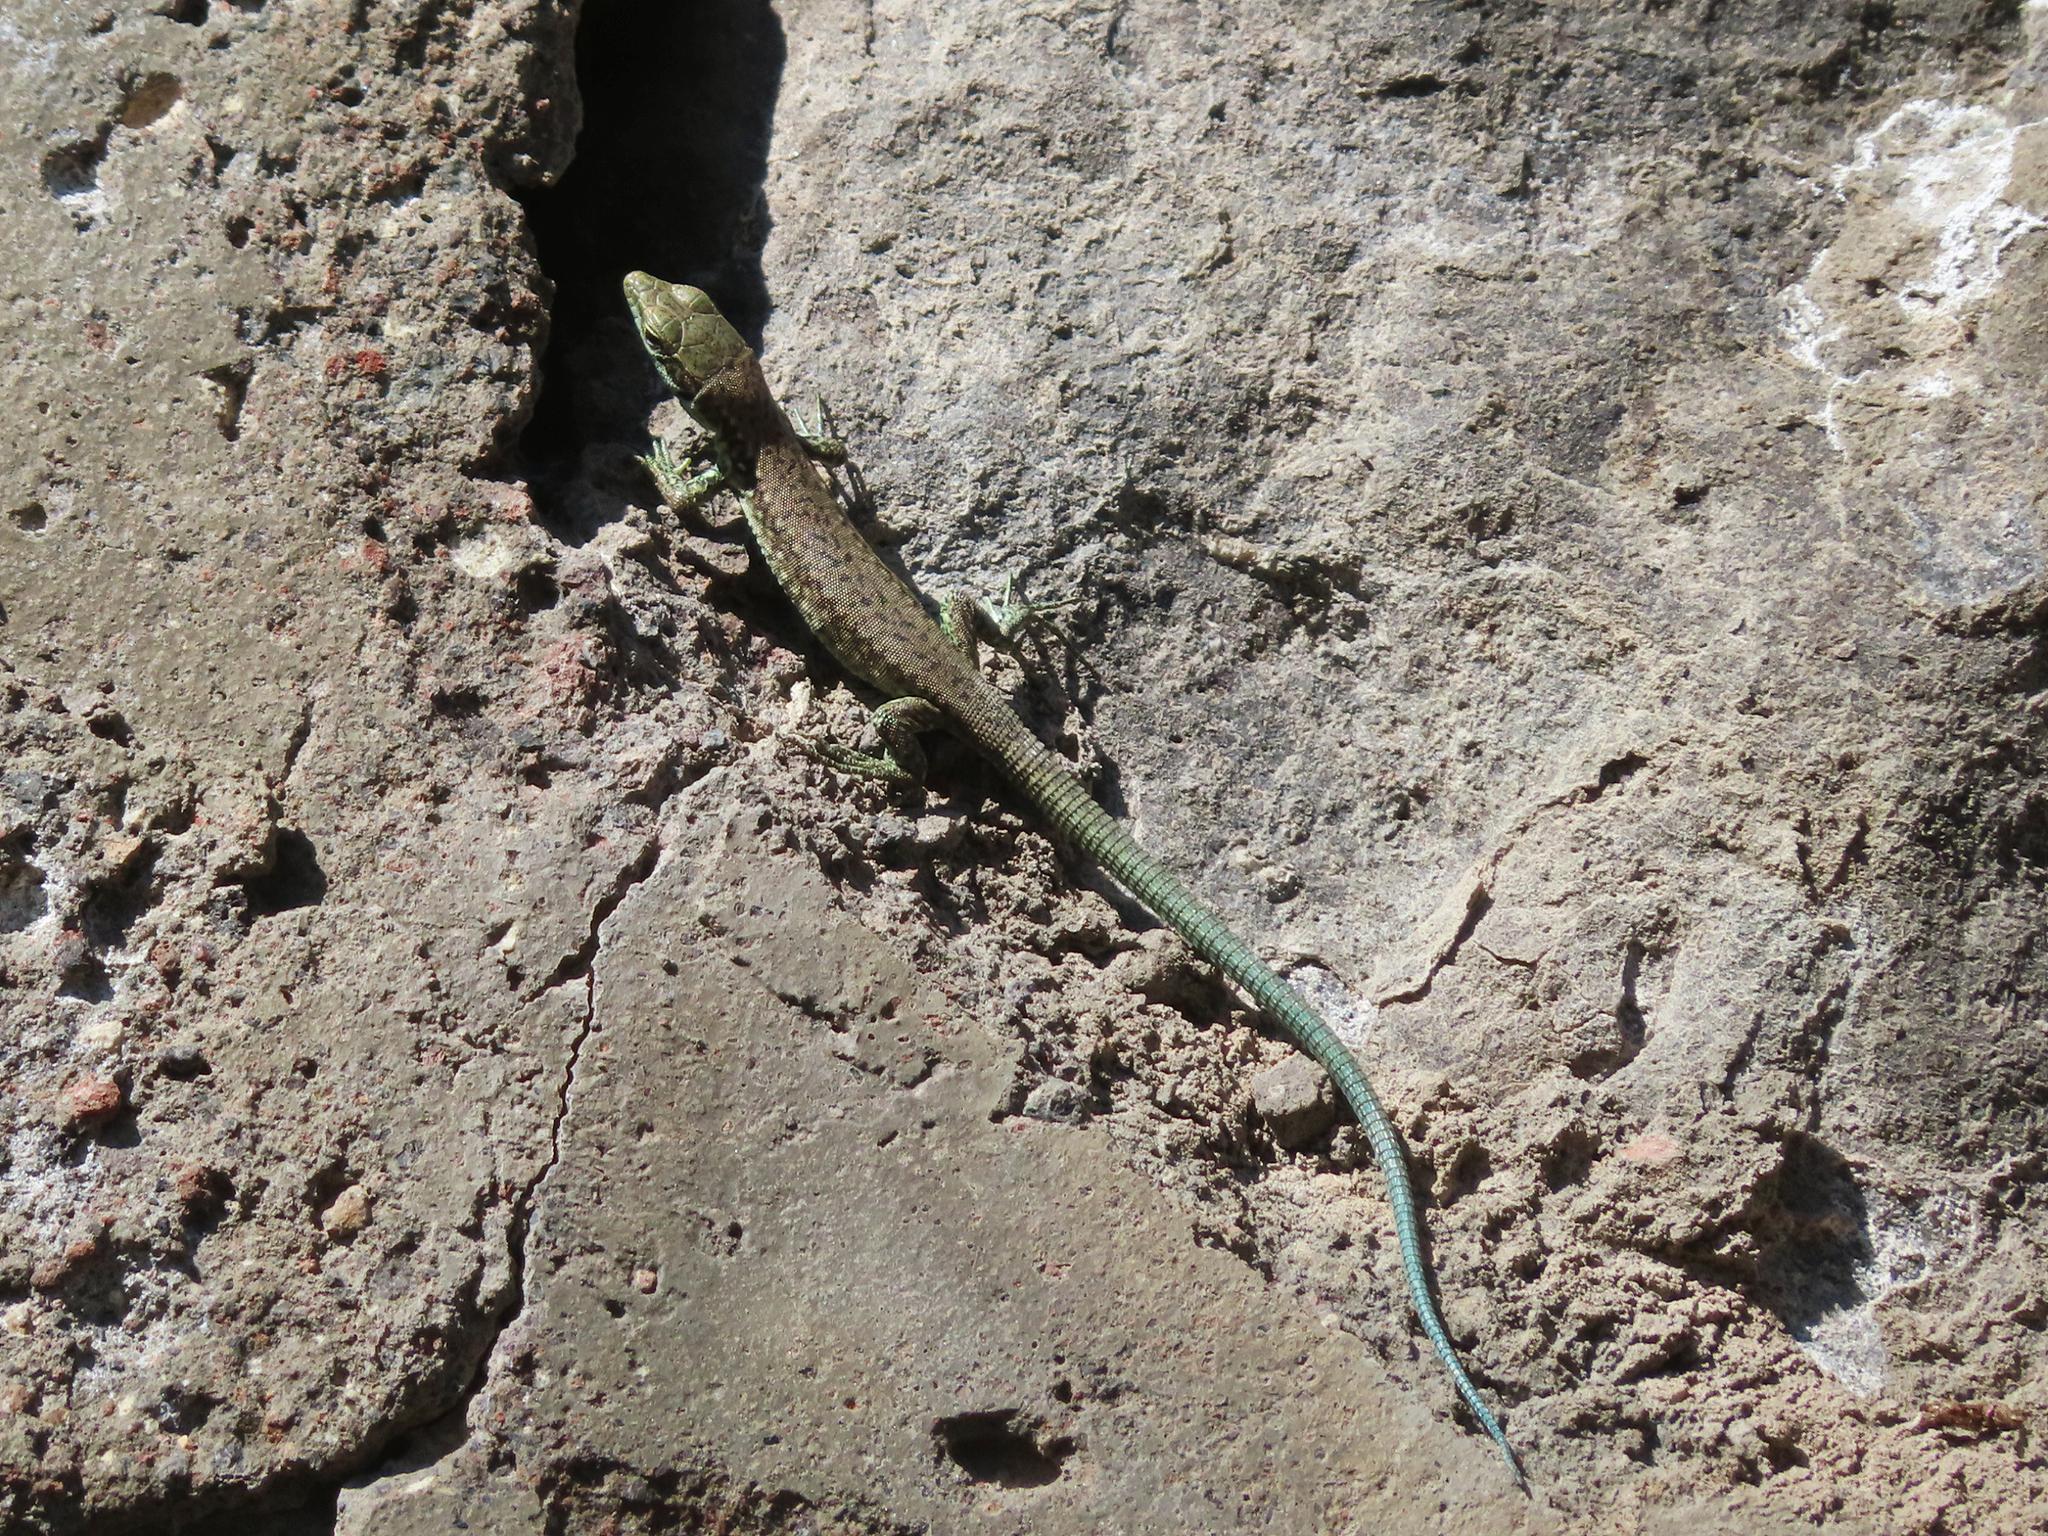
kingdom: Animalia
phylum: Chordata
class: Squamata
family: Lacertidae
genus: Darevskia
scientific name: Darevskia raddei
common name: Radde's lizard
